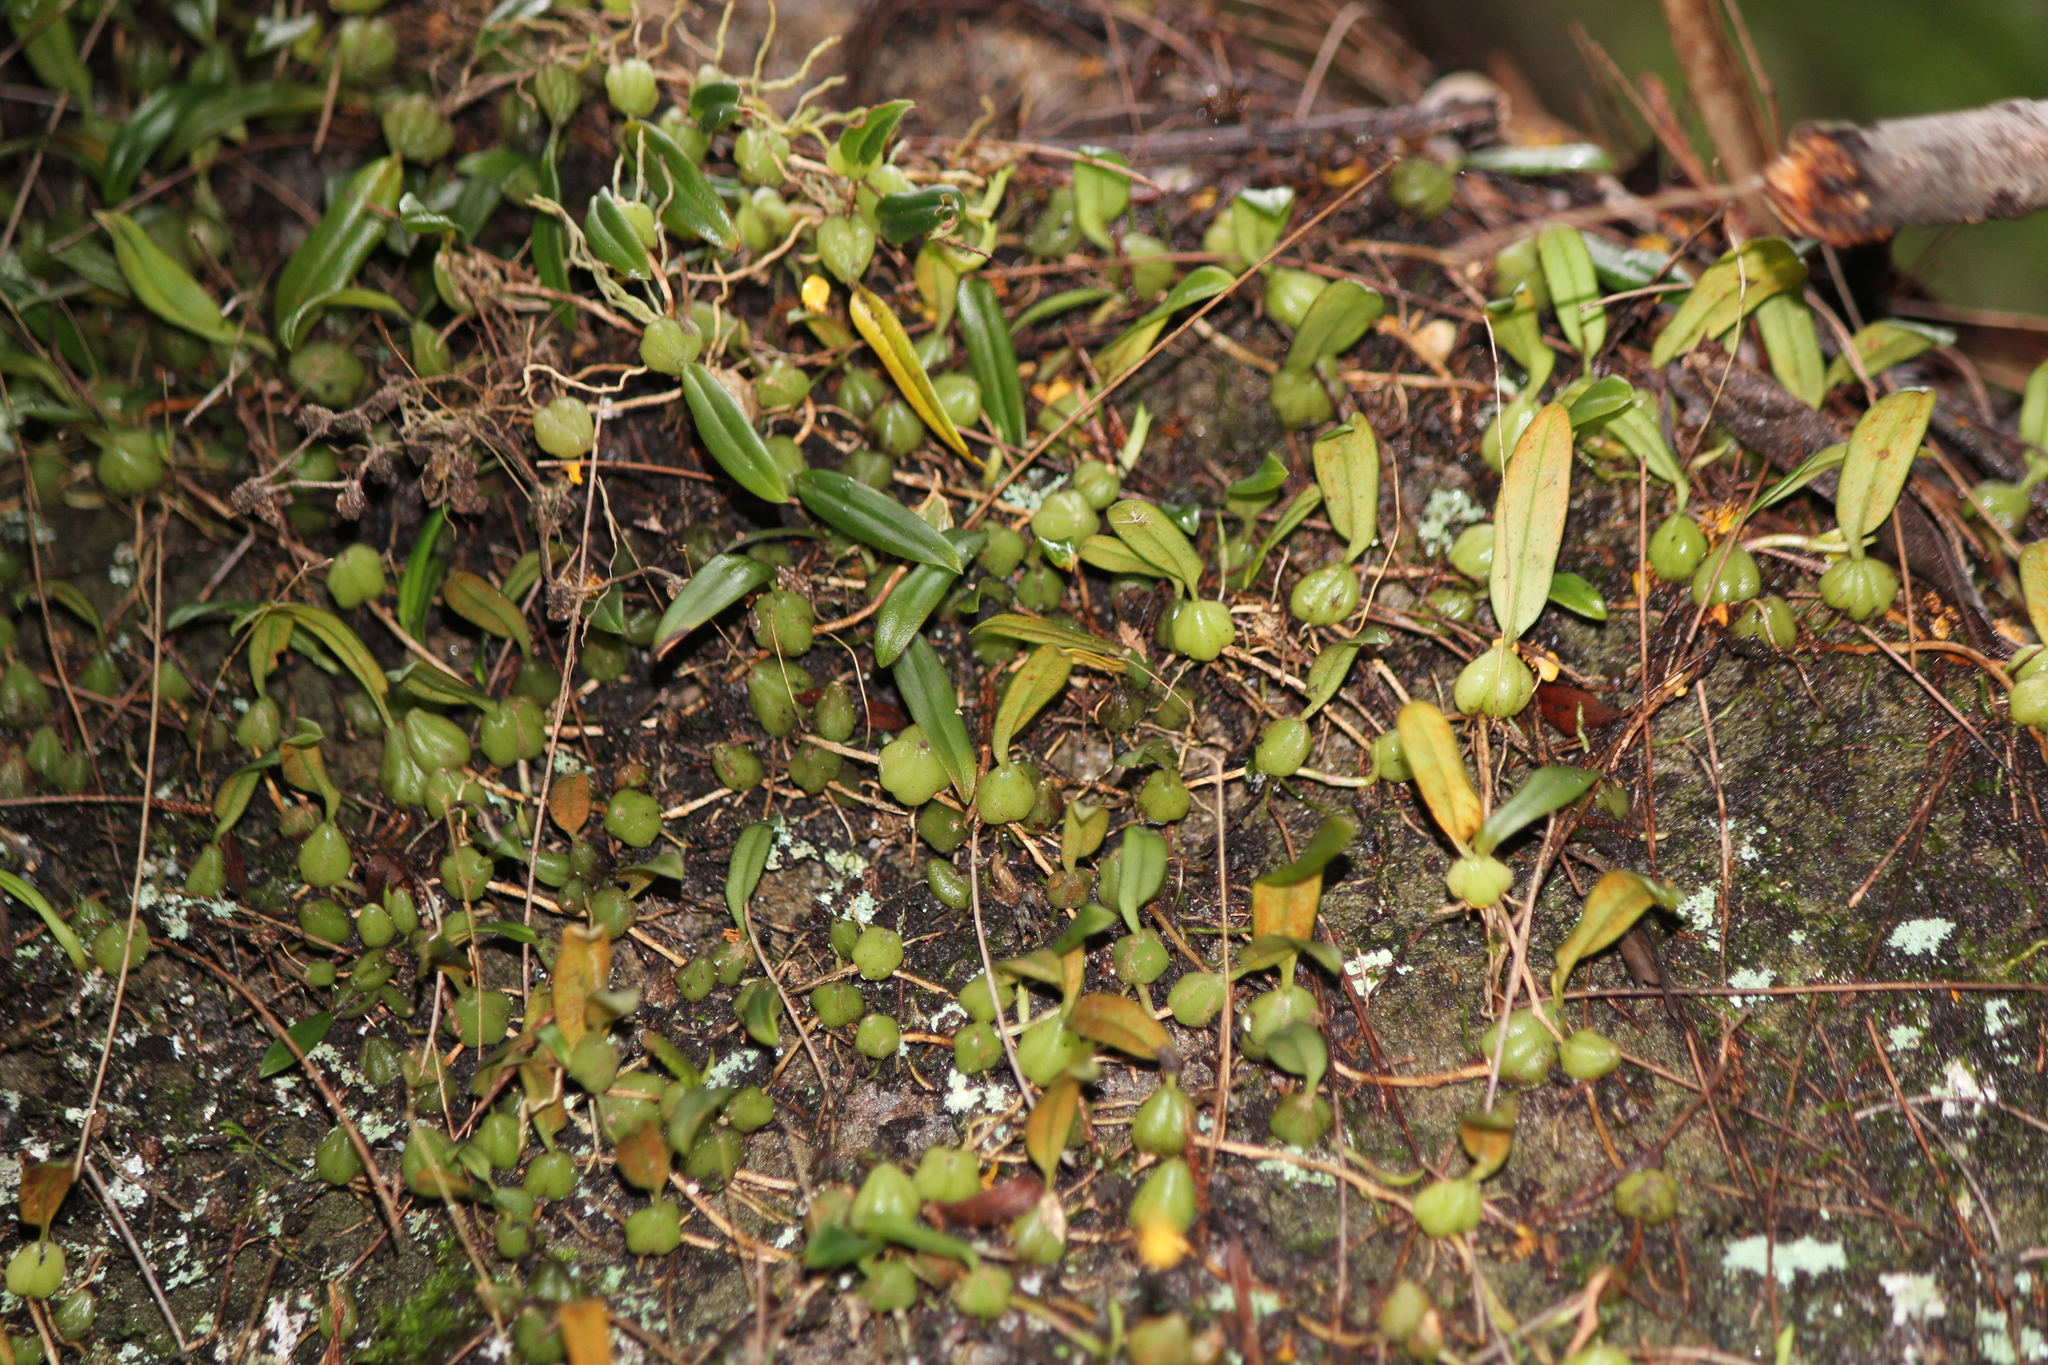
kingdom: Plantae
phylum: Tracheophyta
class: Liliopsida
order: Asparagales
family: Orchidaceae
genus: Bulbophyllum
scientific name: Bulbophyllum exiguum
